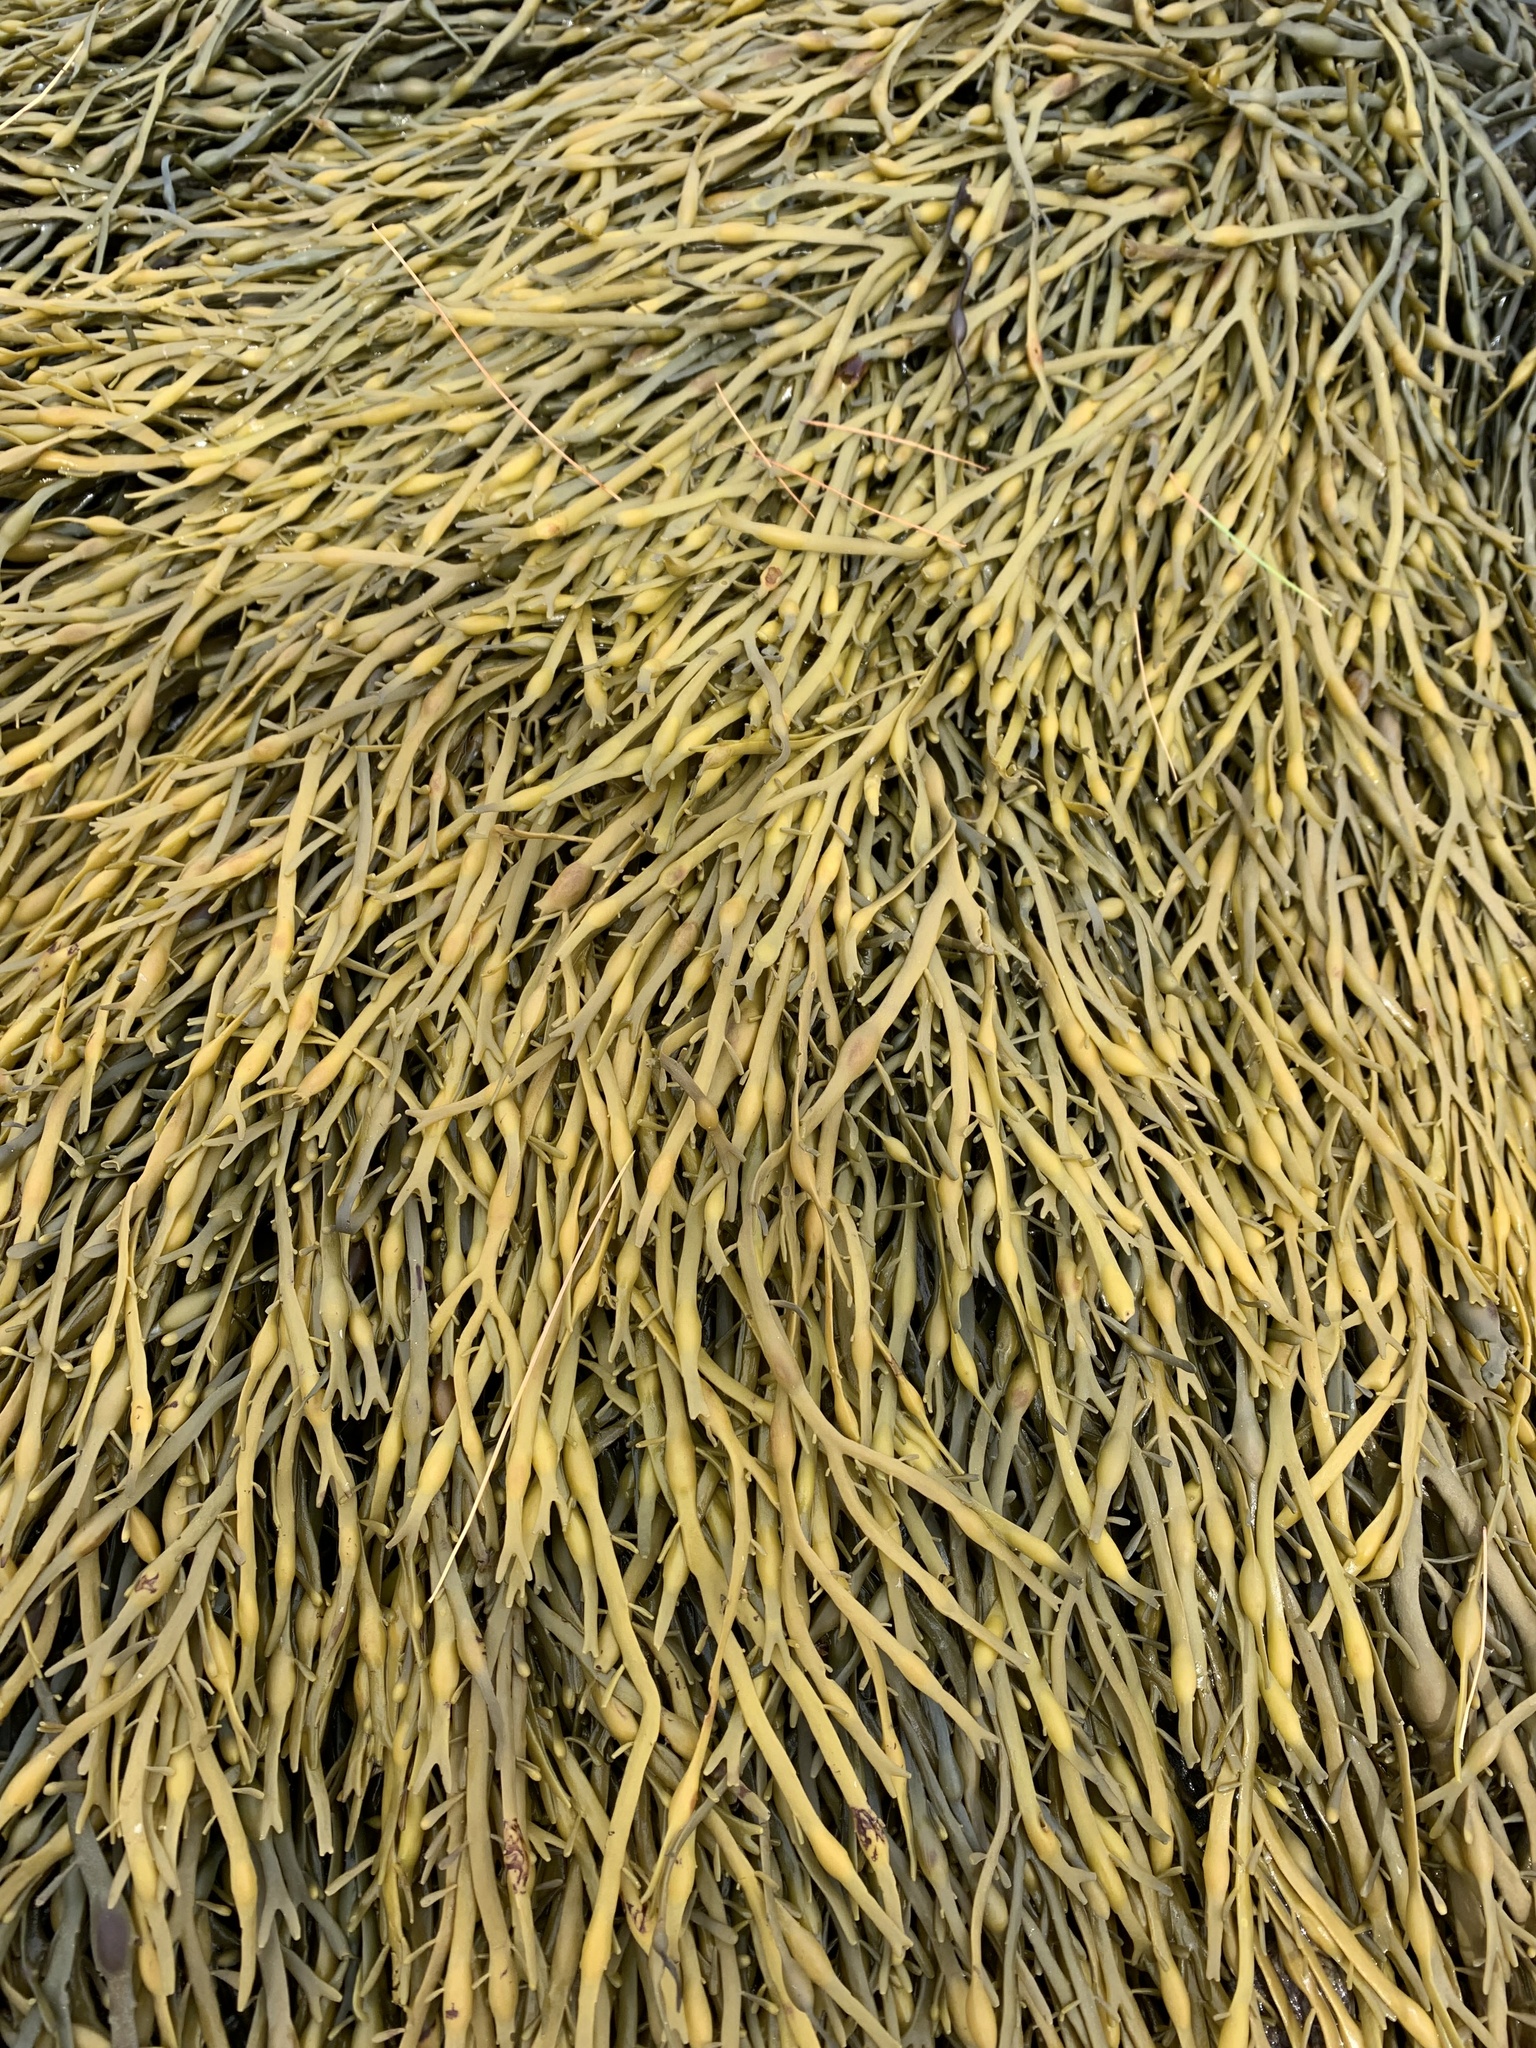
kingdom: Chromista
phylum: Ochrophyta
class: Phaeophyceae
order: Fucales
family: Fucaceae
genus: Ascophyllum
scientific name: Ascophyllum nodosum
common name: Knotted wrack
